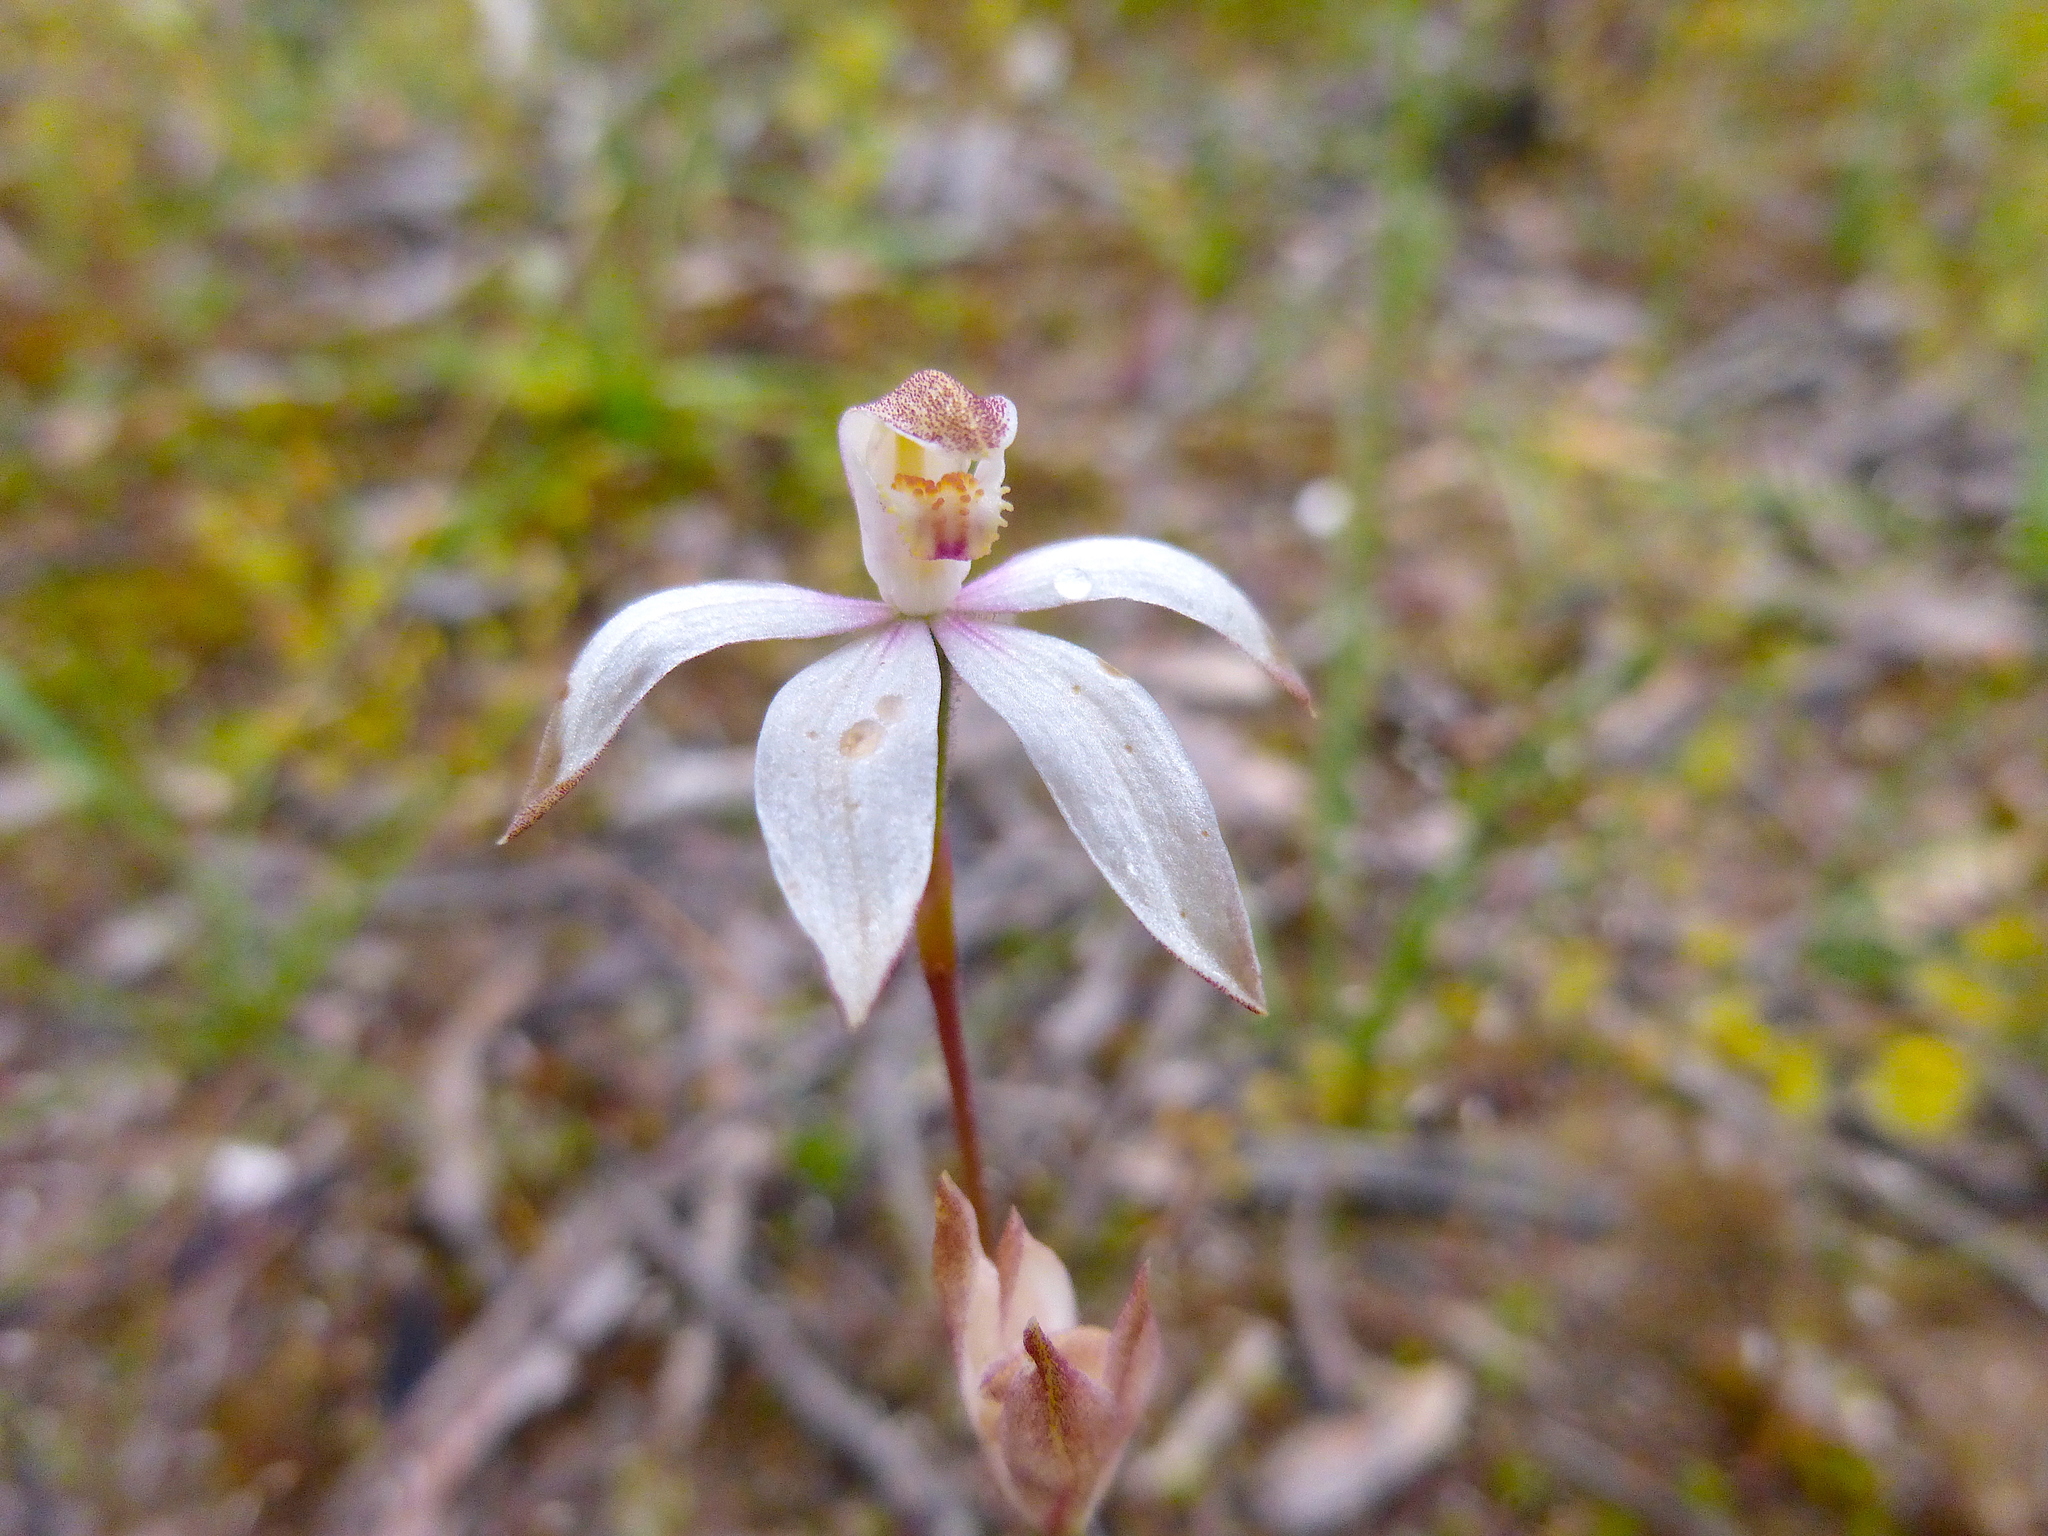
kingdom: Plantae
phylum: Tracheophyta
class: Liliopsida
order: Asparagales
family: Orchidaceae
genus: Caladenia
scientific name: Caladenia moschata
